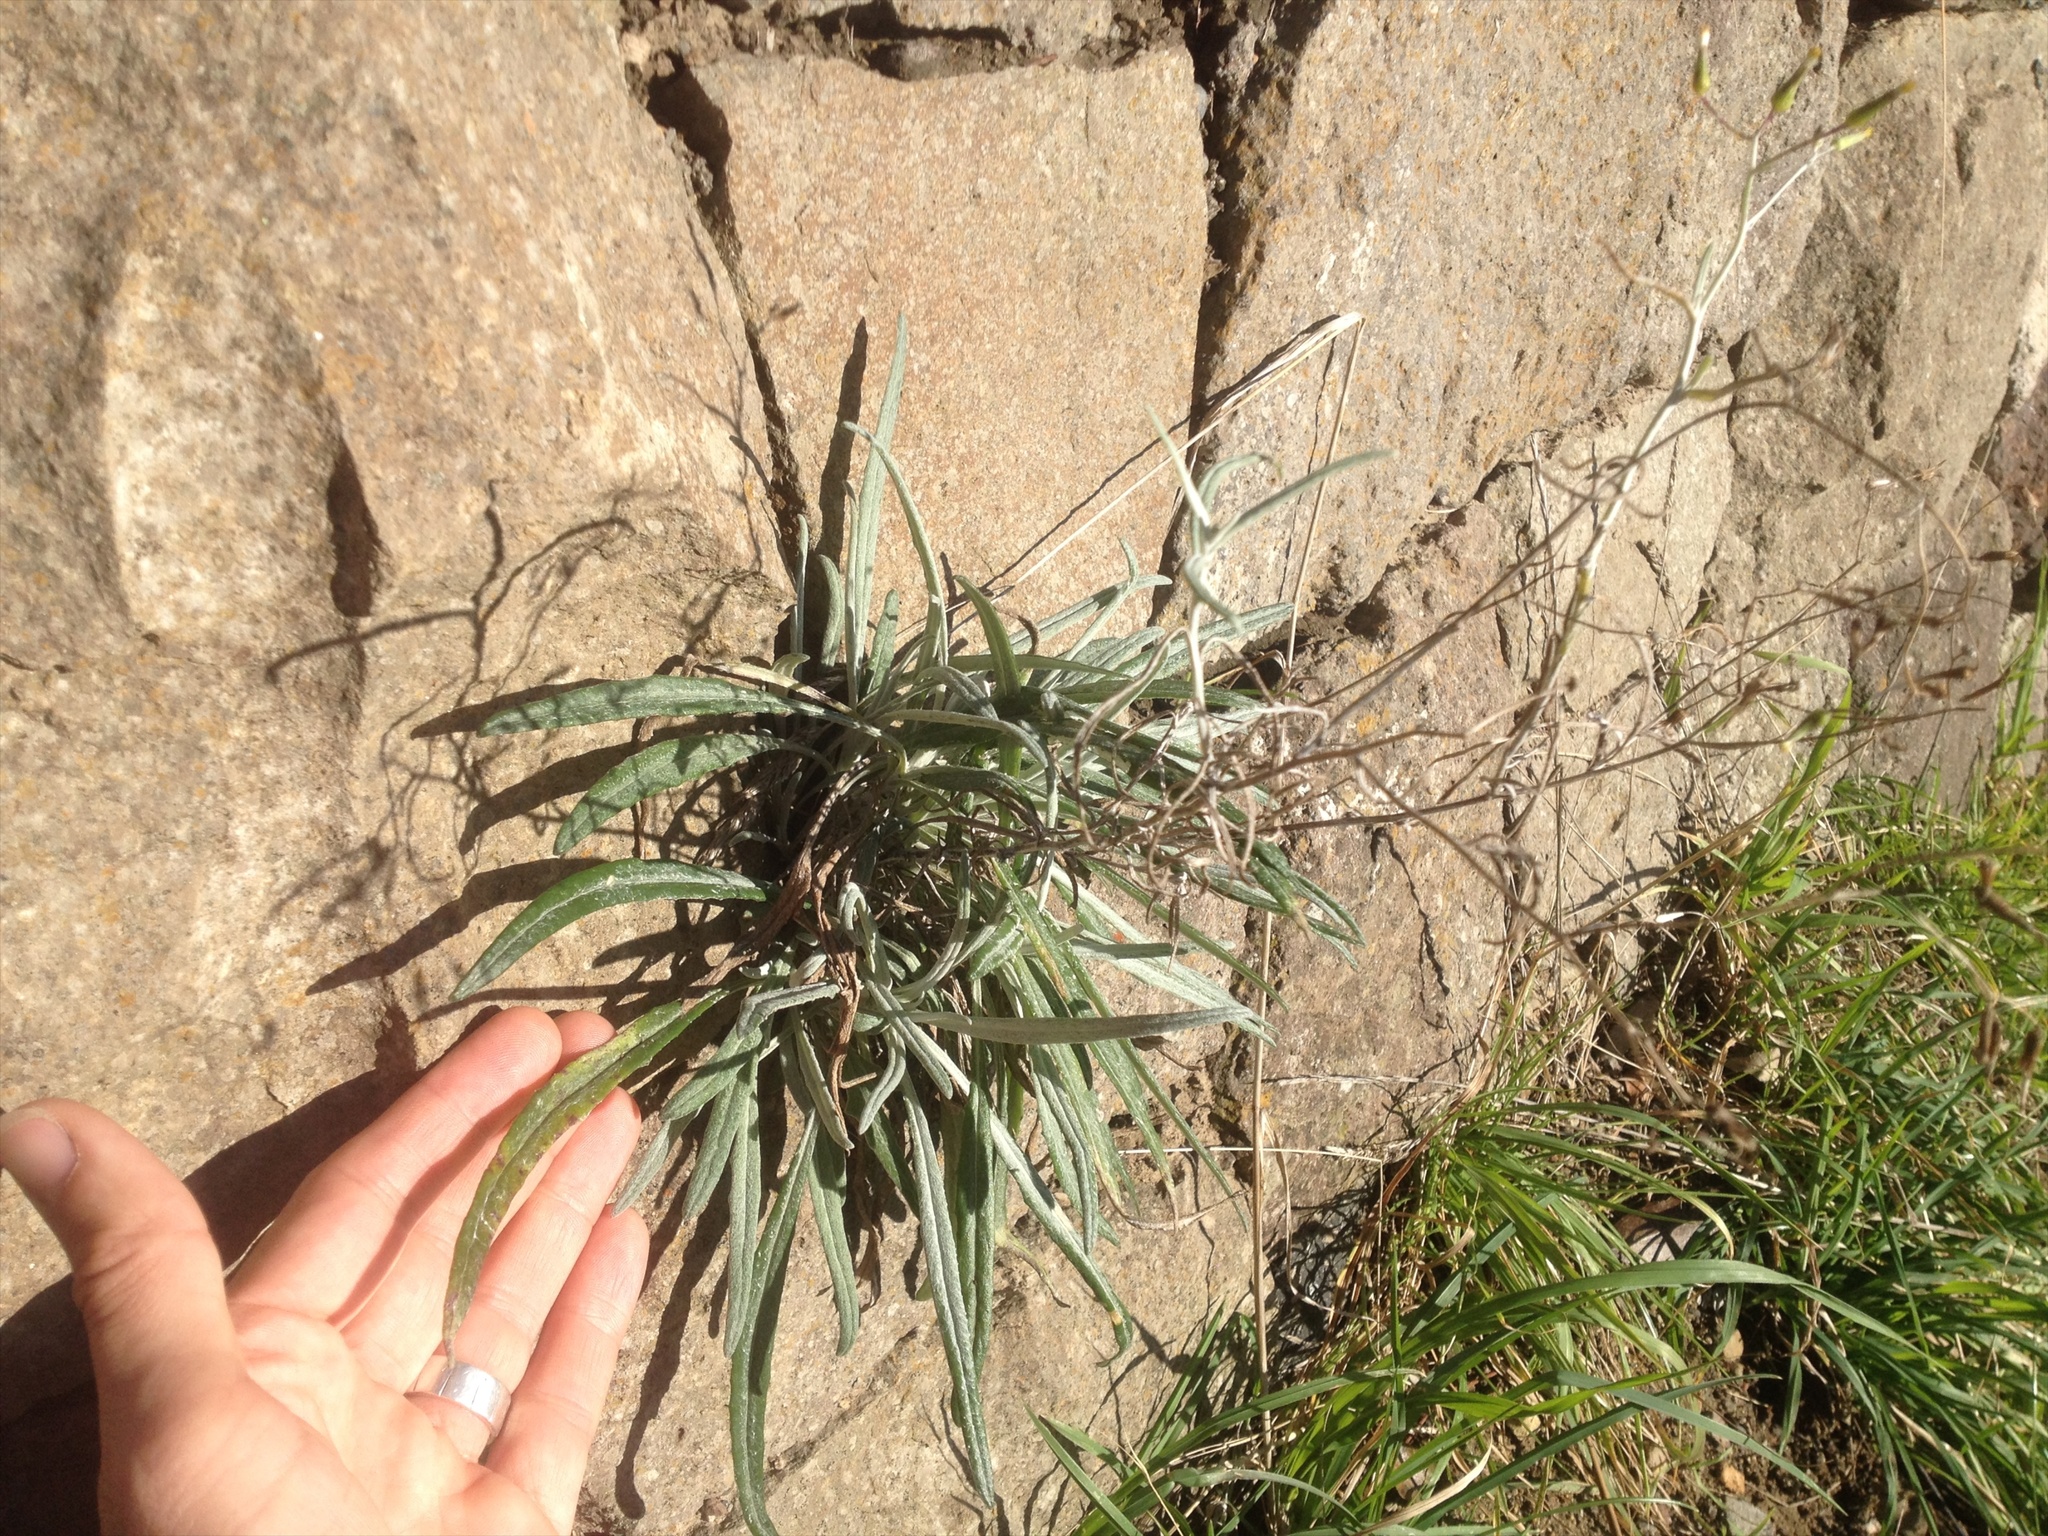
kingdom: Plantae
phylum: Tracheophyta
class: Magnoliopsida
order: Asterales
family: Asteraceae
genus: Senecio
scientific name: Senecio quadridentatus
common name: Cotton fireweed
